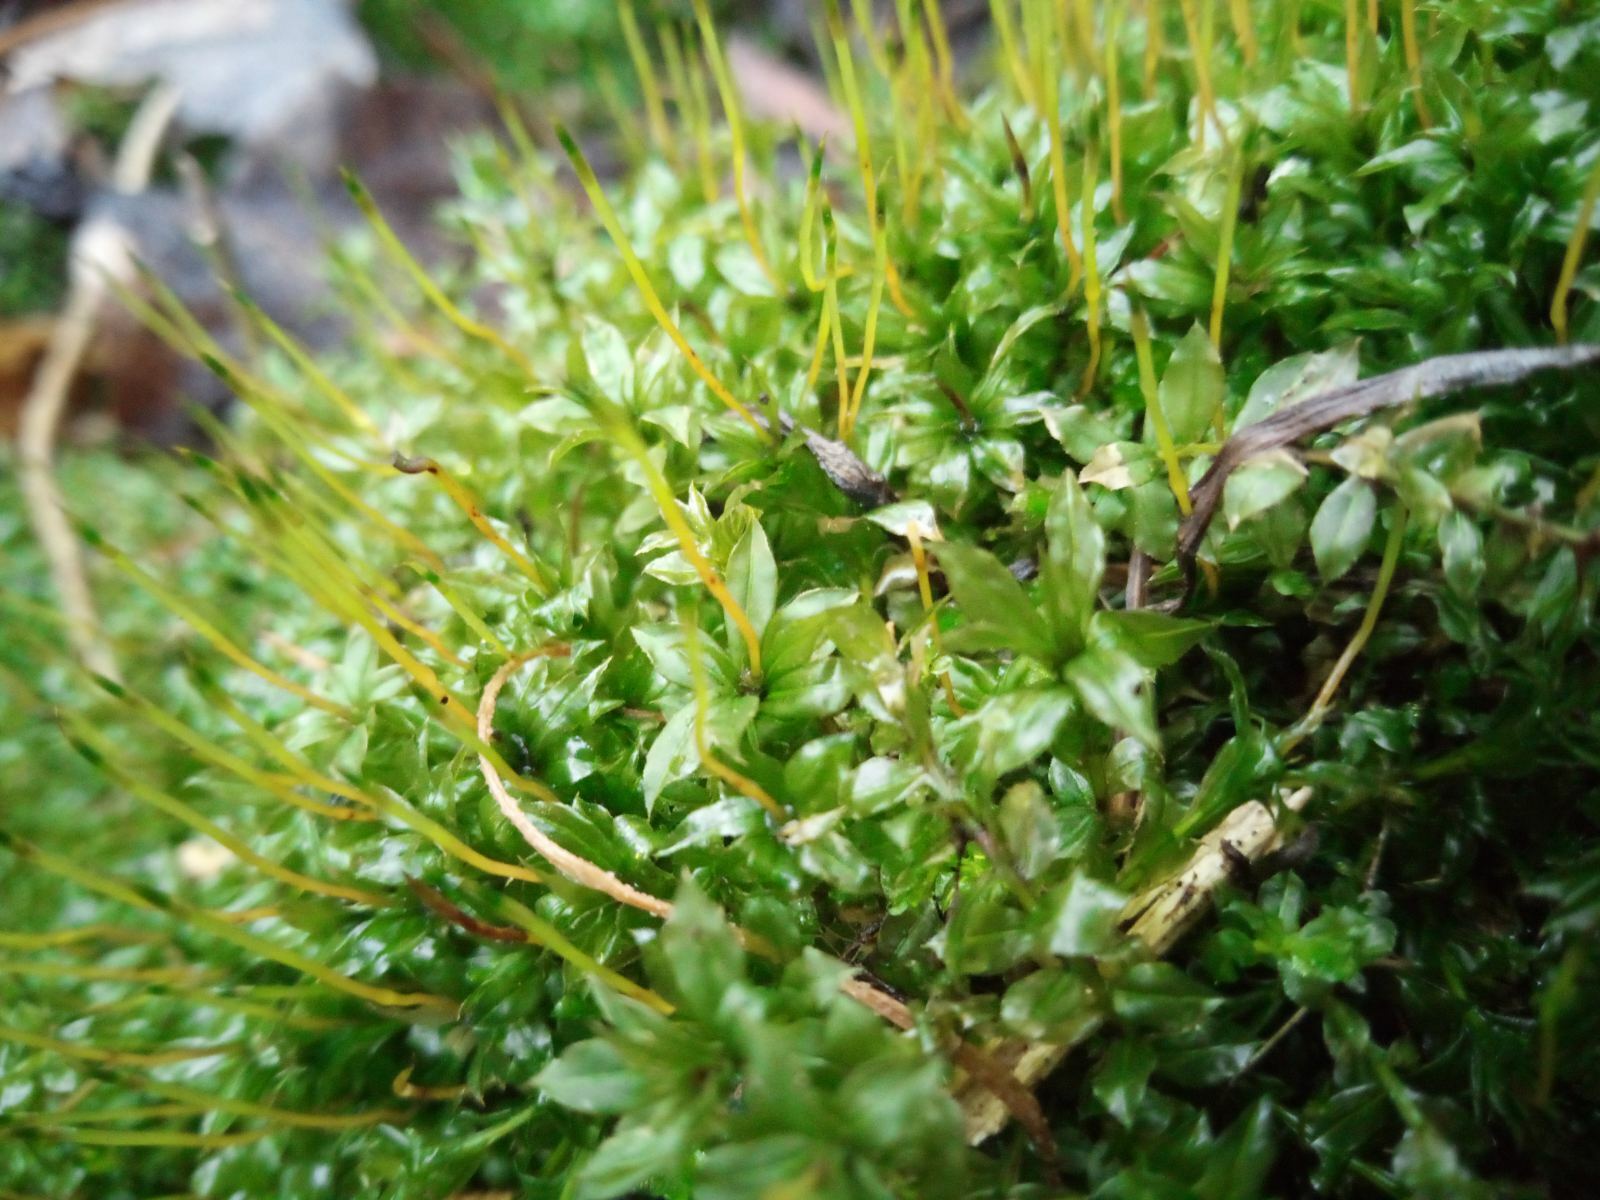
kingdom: Plantae
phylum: Bryophyta
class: Bryopsida
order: Bryales
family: Mniaceae
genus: Plagiomnium
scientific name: Plagiomnium cuspidatum
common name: Woodsy leafy moss
